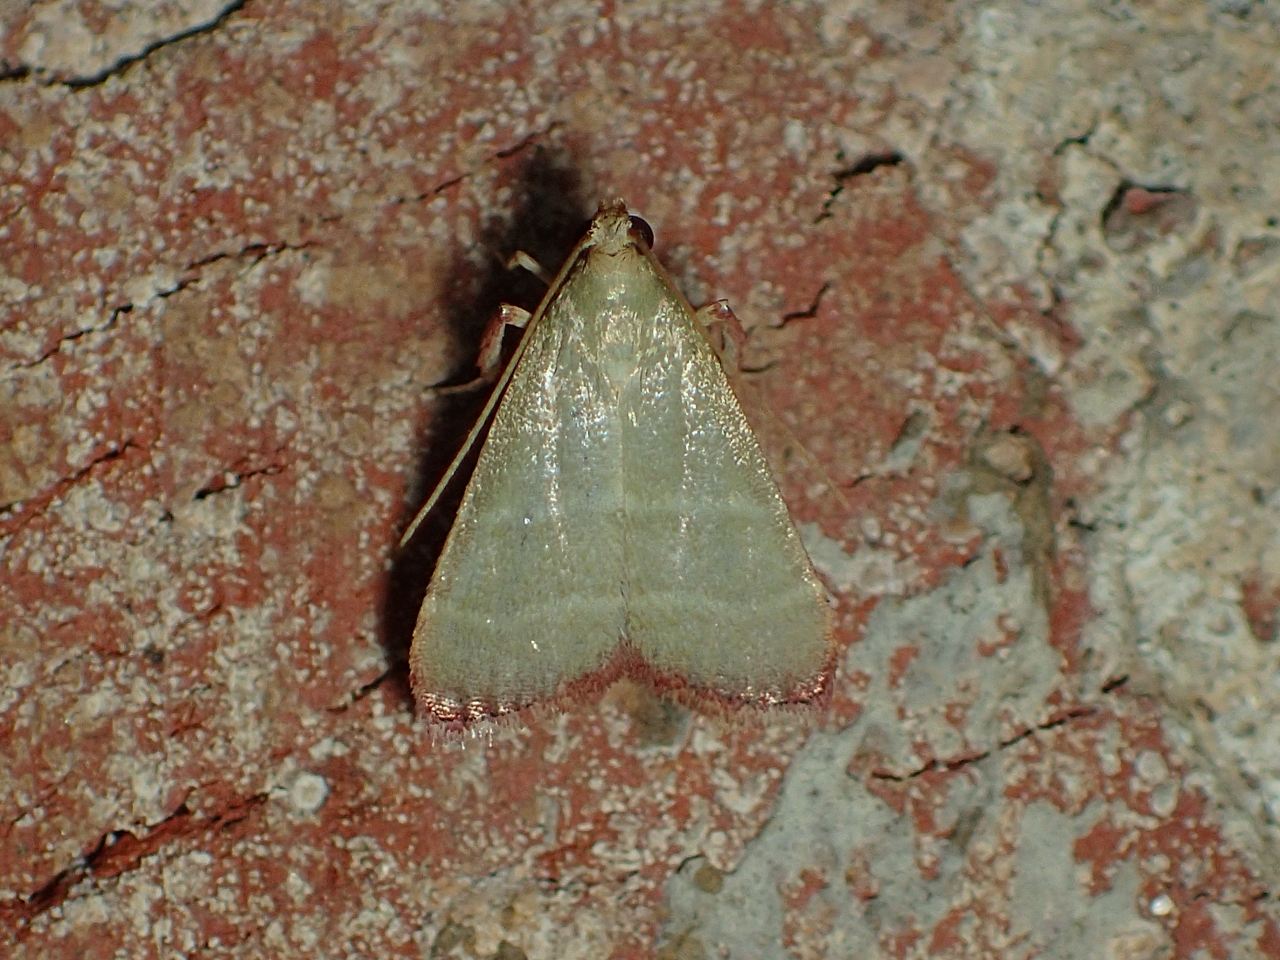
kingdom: Animalia
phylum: Arthropoda
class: Insecta
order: Lepidoptera
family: Pyralidae
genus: Arta
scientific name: Arta olivalis
